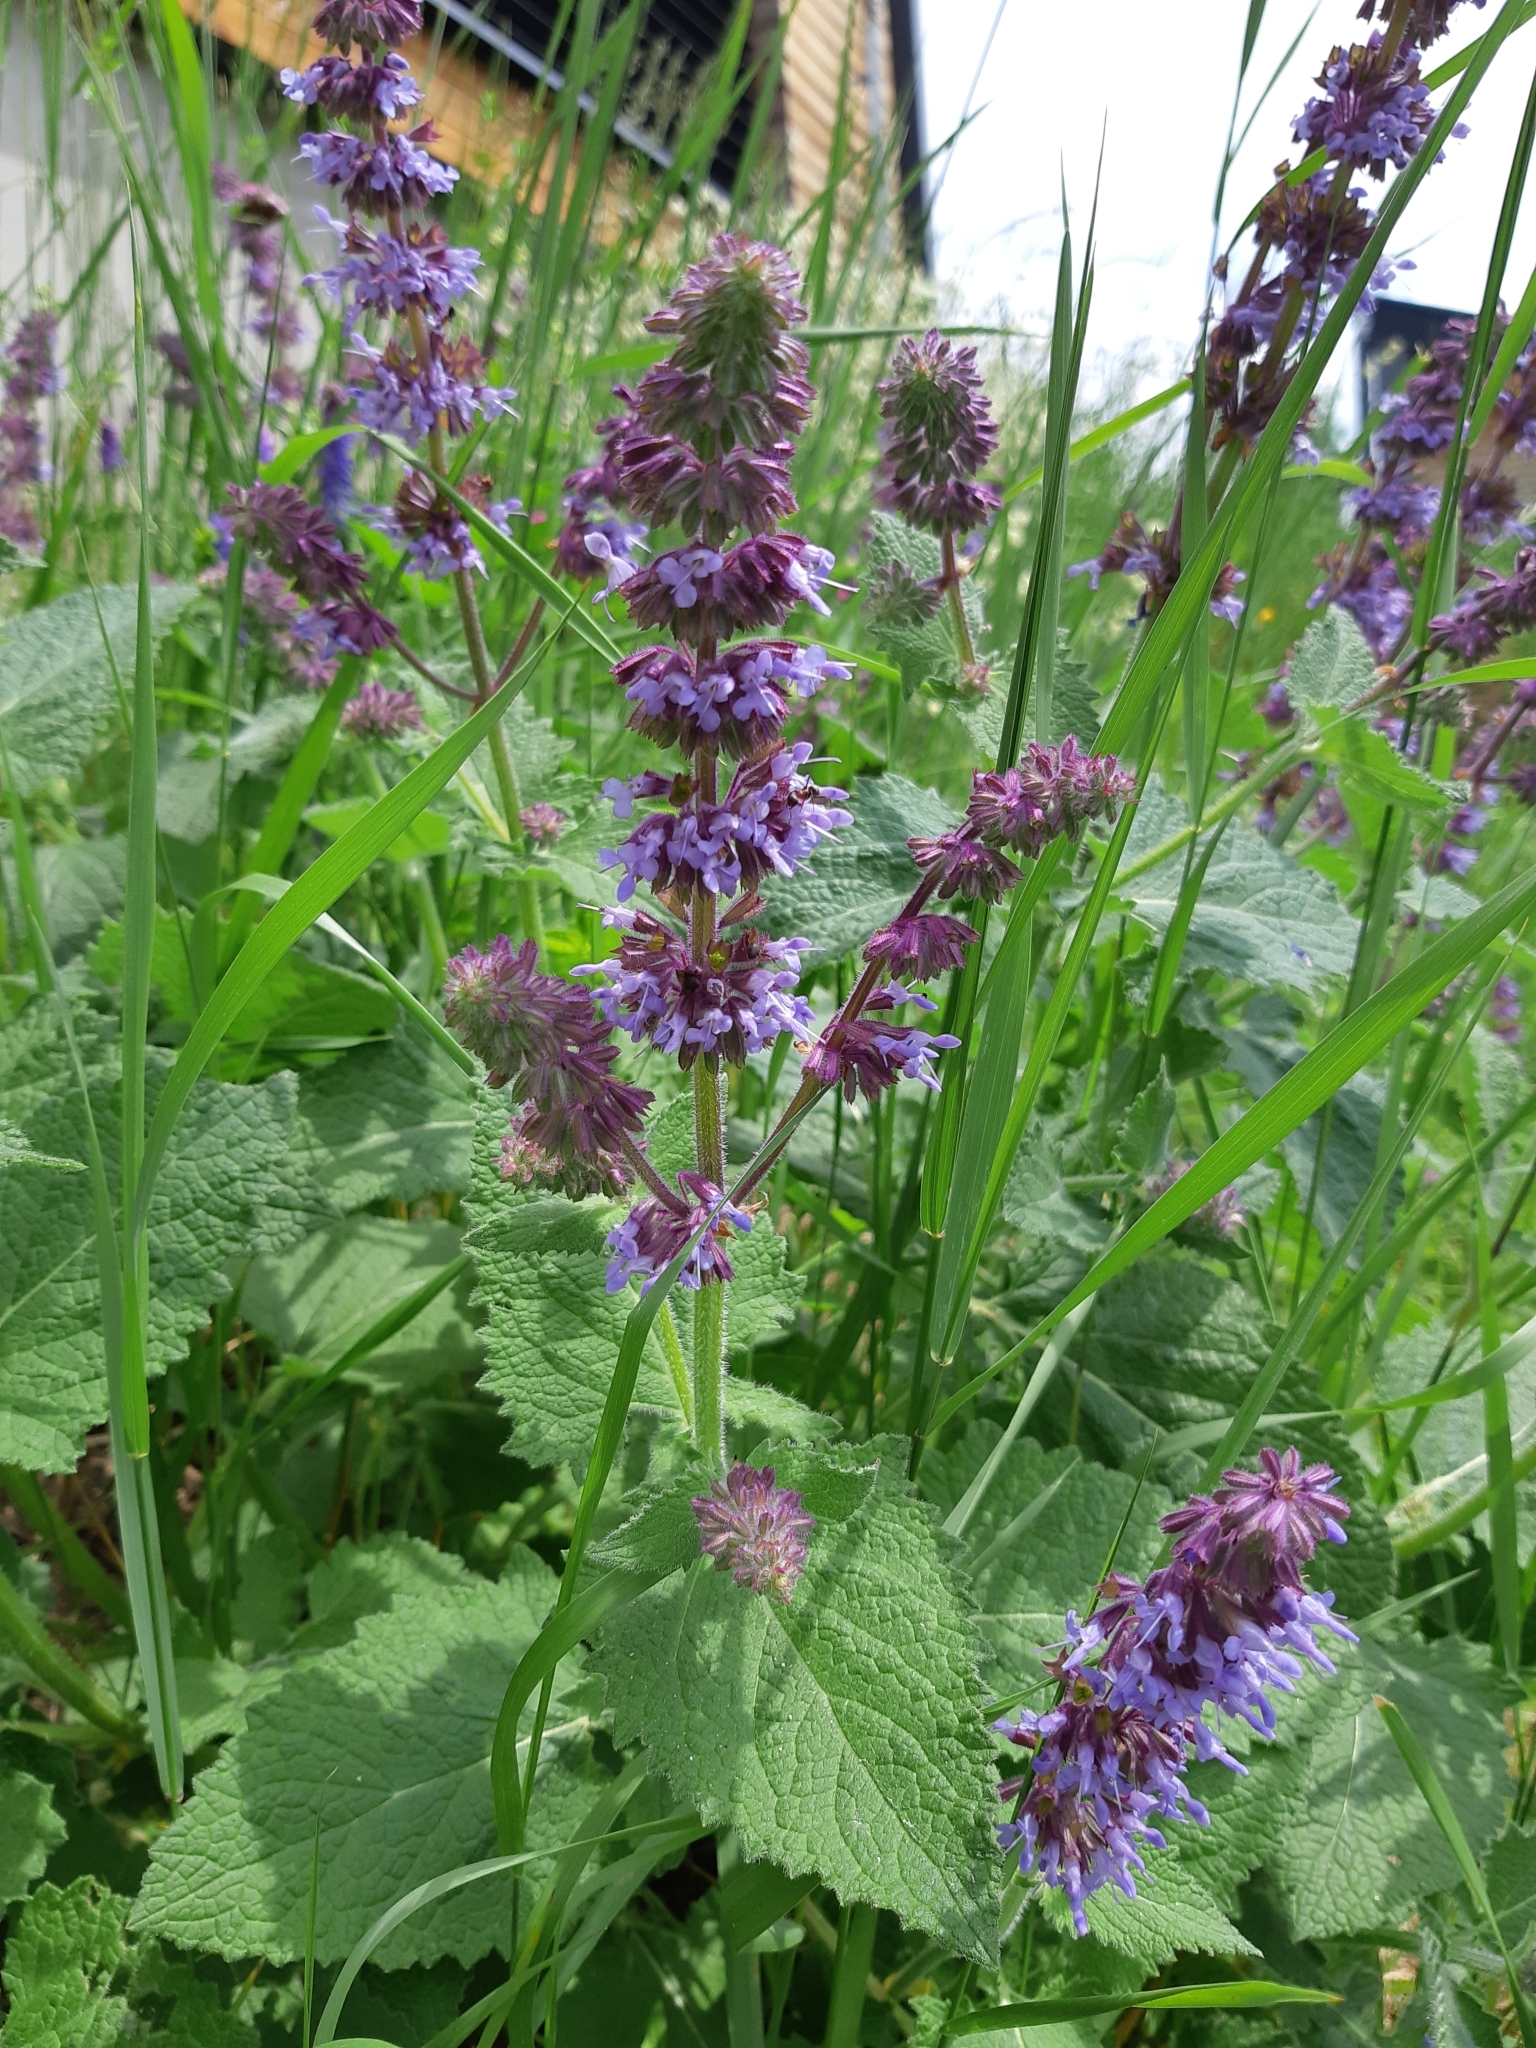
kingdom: Plantae
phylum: Tracheophyta
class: Magnoliopsida
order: Lamiales
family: Lamiaceae
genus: Salvia
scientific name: Salvia verticillata
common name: Whorled clary
